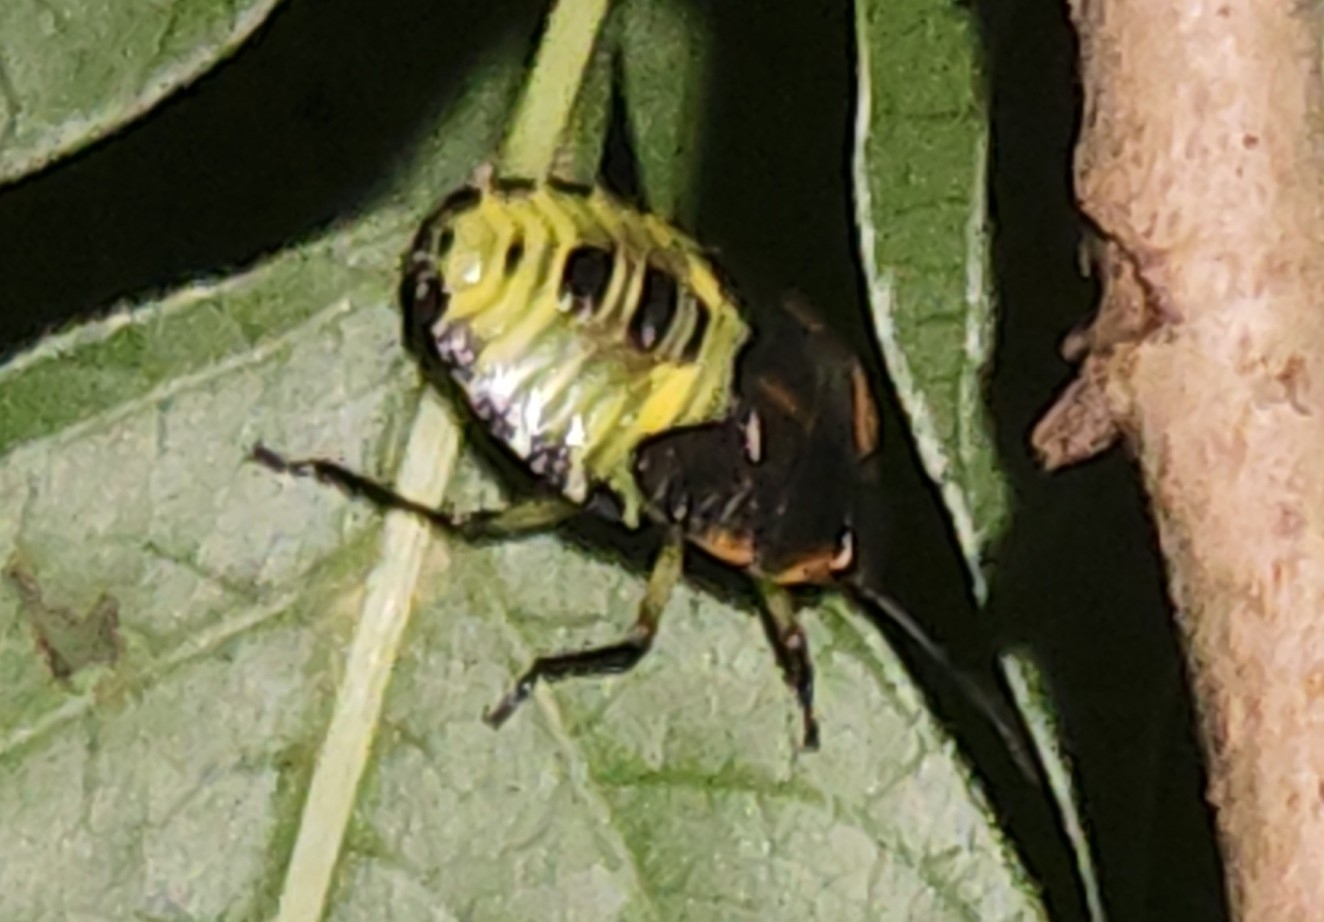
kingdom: Animalia
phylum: Arthropoda
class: Insecta
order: Hemiptera
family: Pentatomidae
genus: Chinavia
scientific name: Chinavia hilaris
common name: Green stink bug
